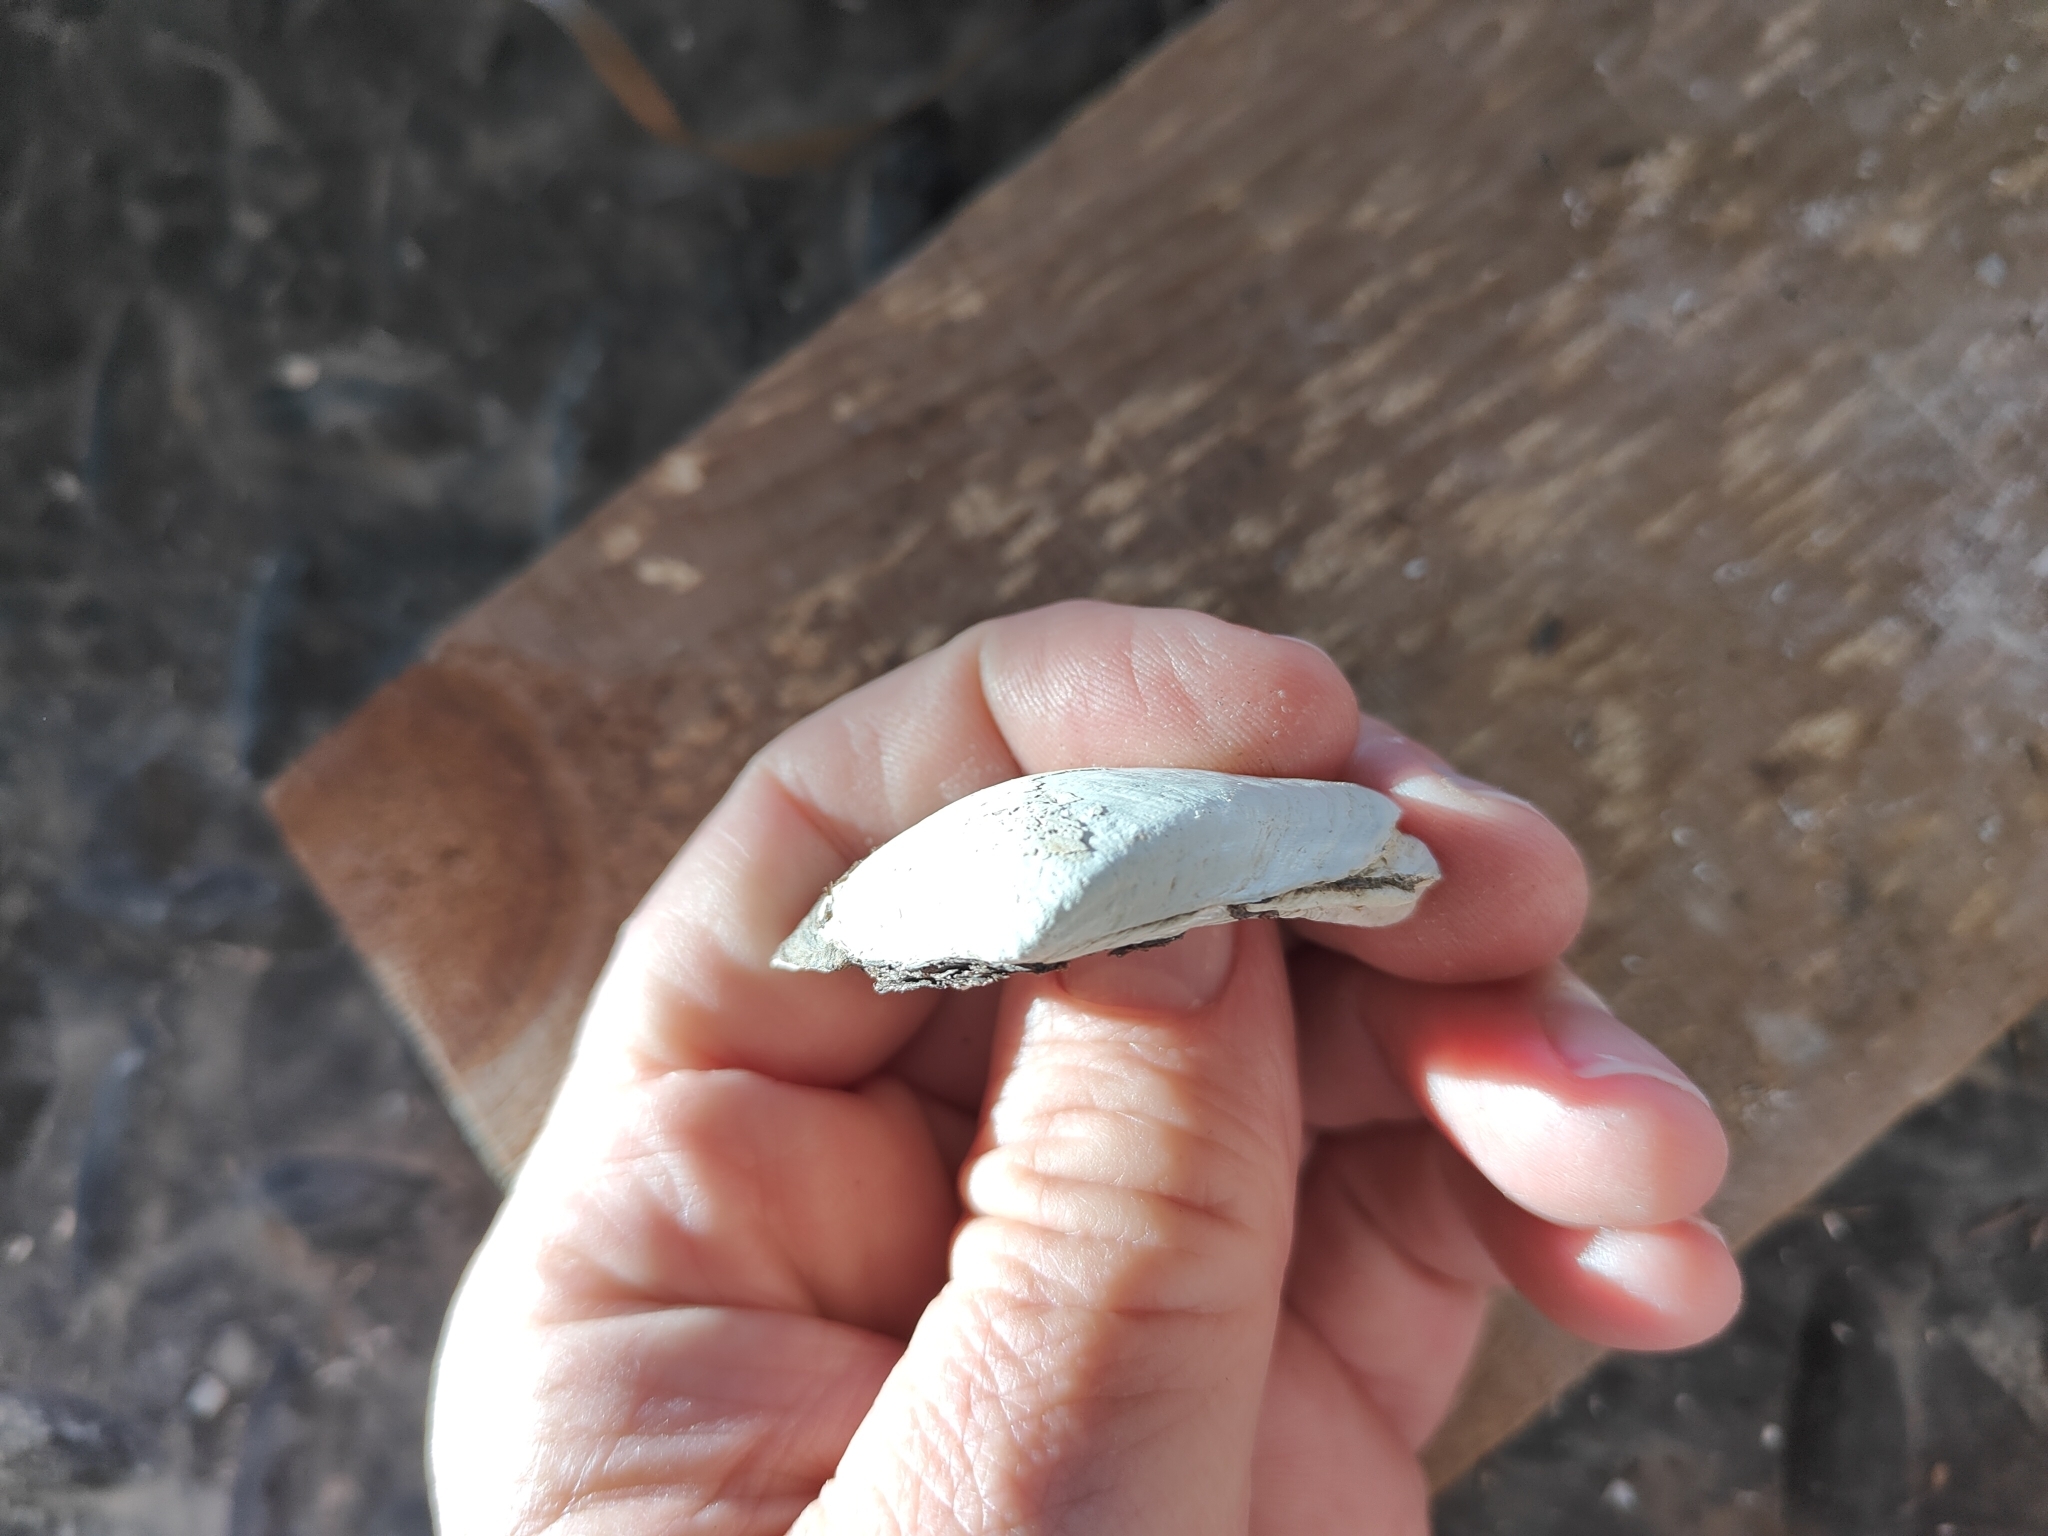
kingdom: Animalia
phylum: Mollusca
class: Bivalvia
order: Unionida
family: Unionidae
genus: Fusconaia
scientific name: Fusconaia flava
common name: Wabash pigtoe
